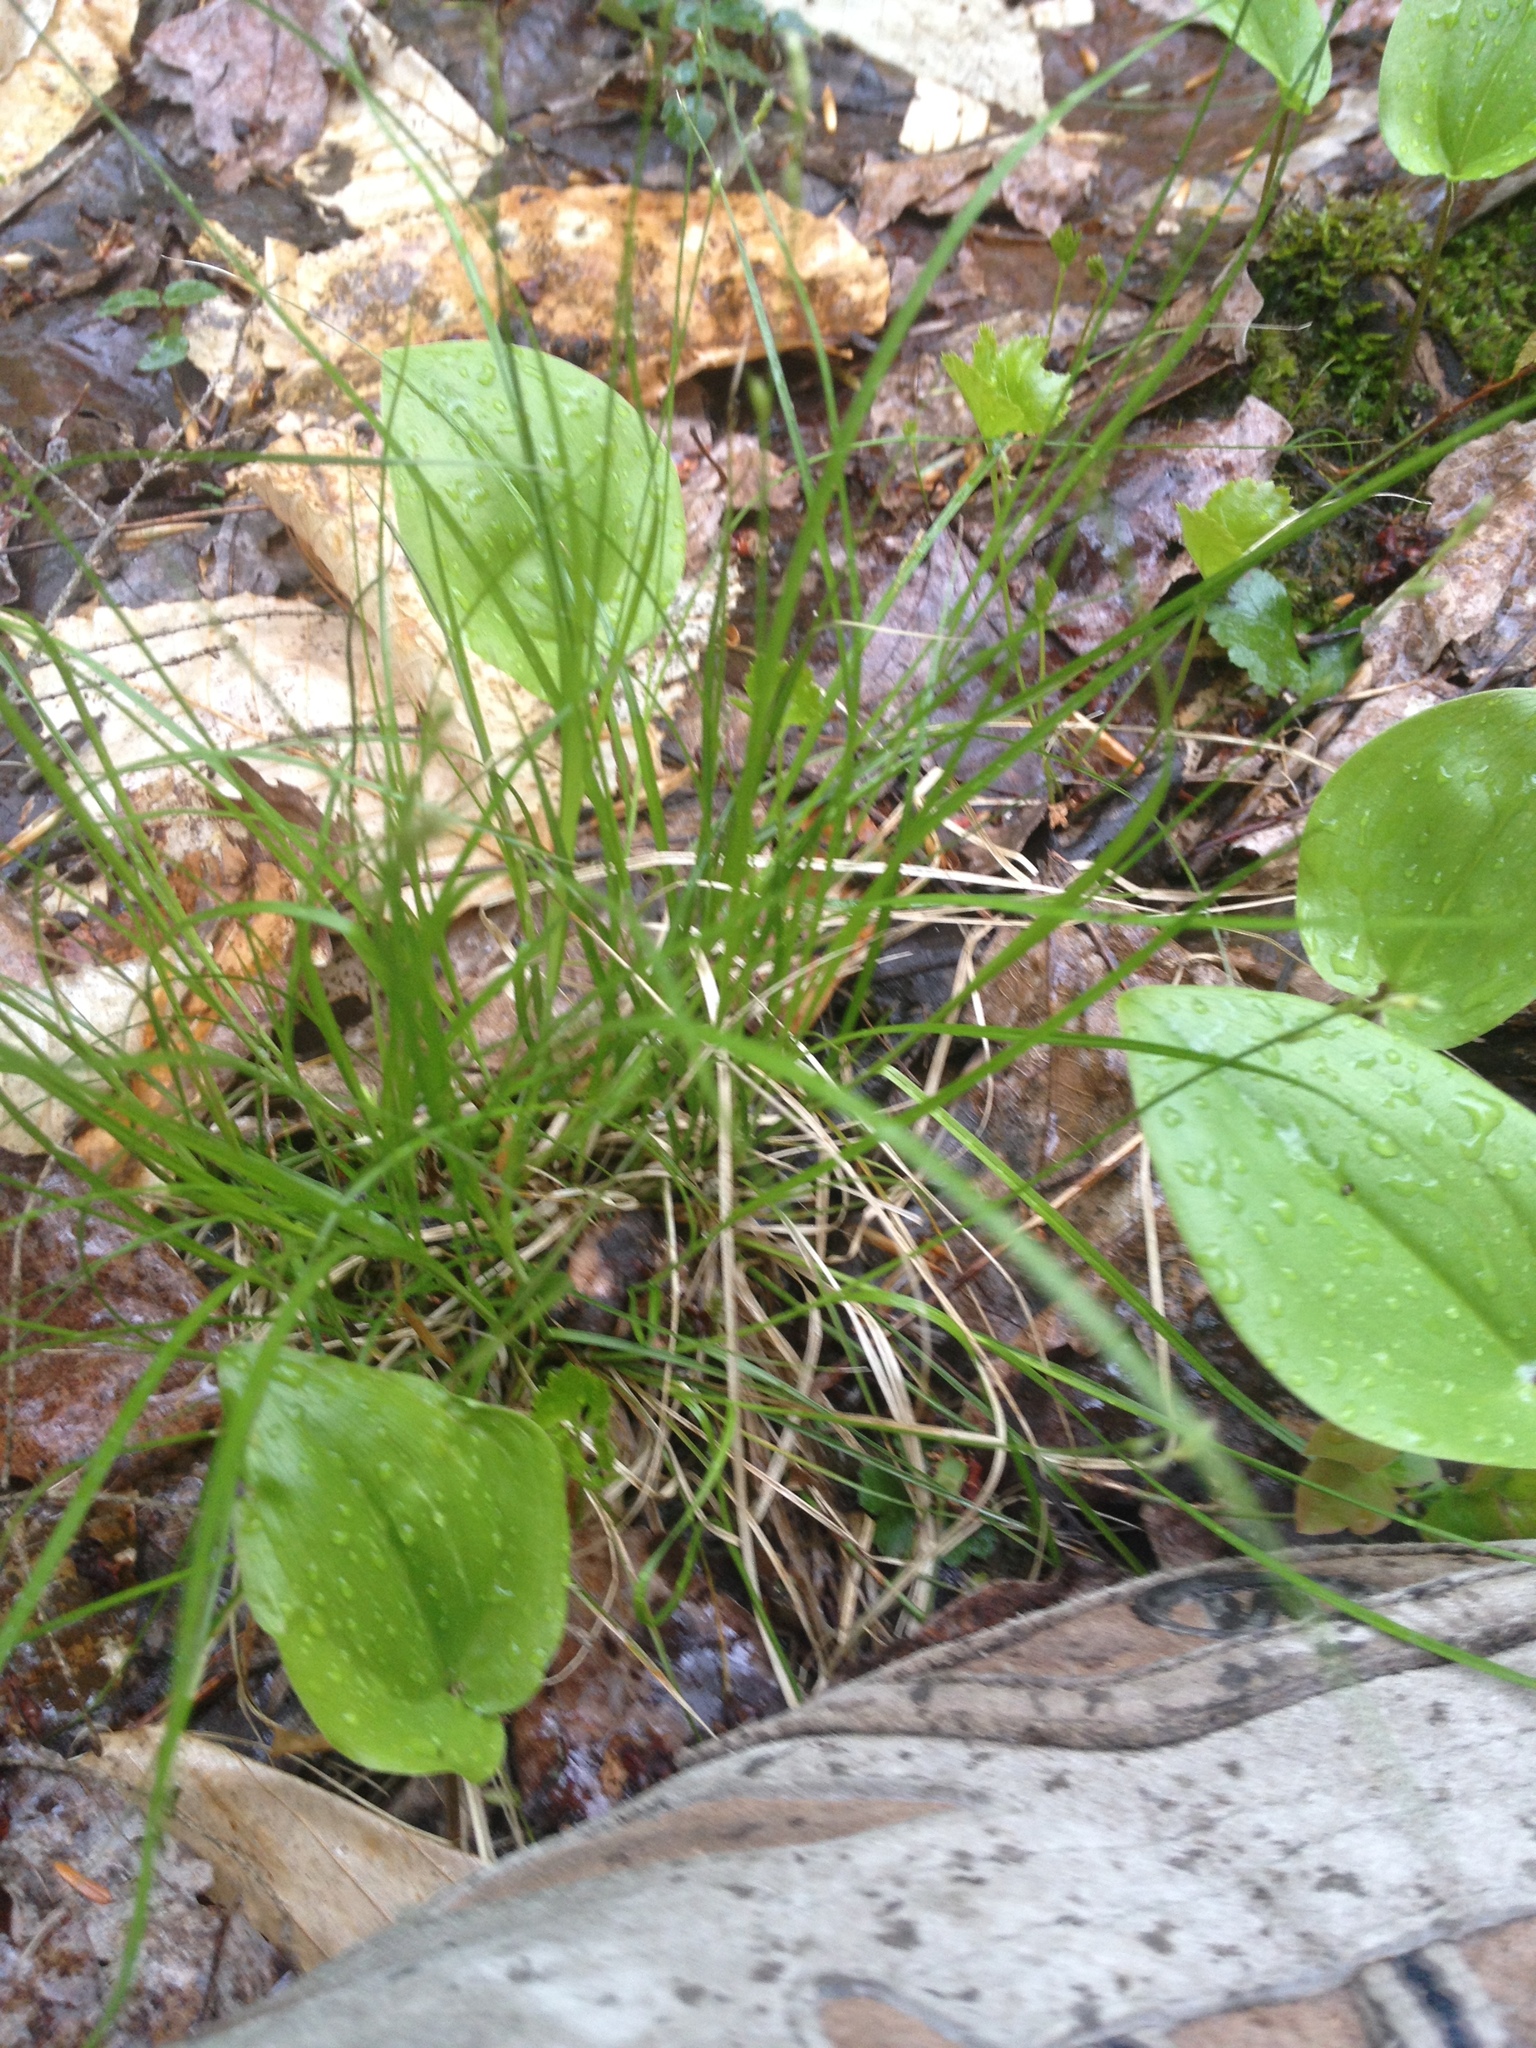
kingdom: Plantae
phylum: Tracheophyta
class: Liliopsida
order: Asparagales
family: Asparagaceae
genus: Maianthemum
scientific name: Maianthemum canadense
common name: False lily-of-the-valley
